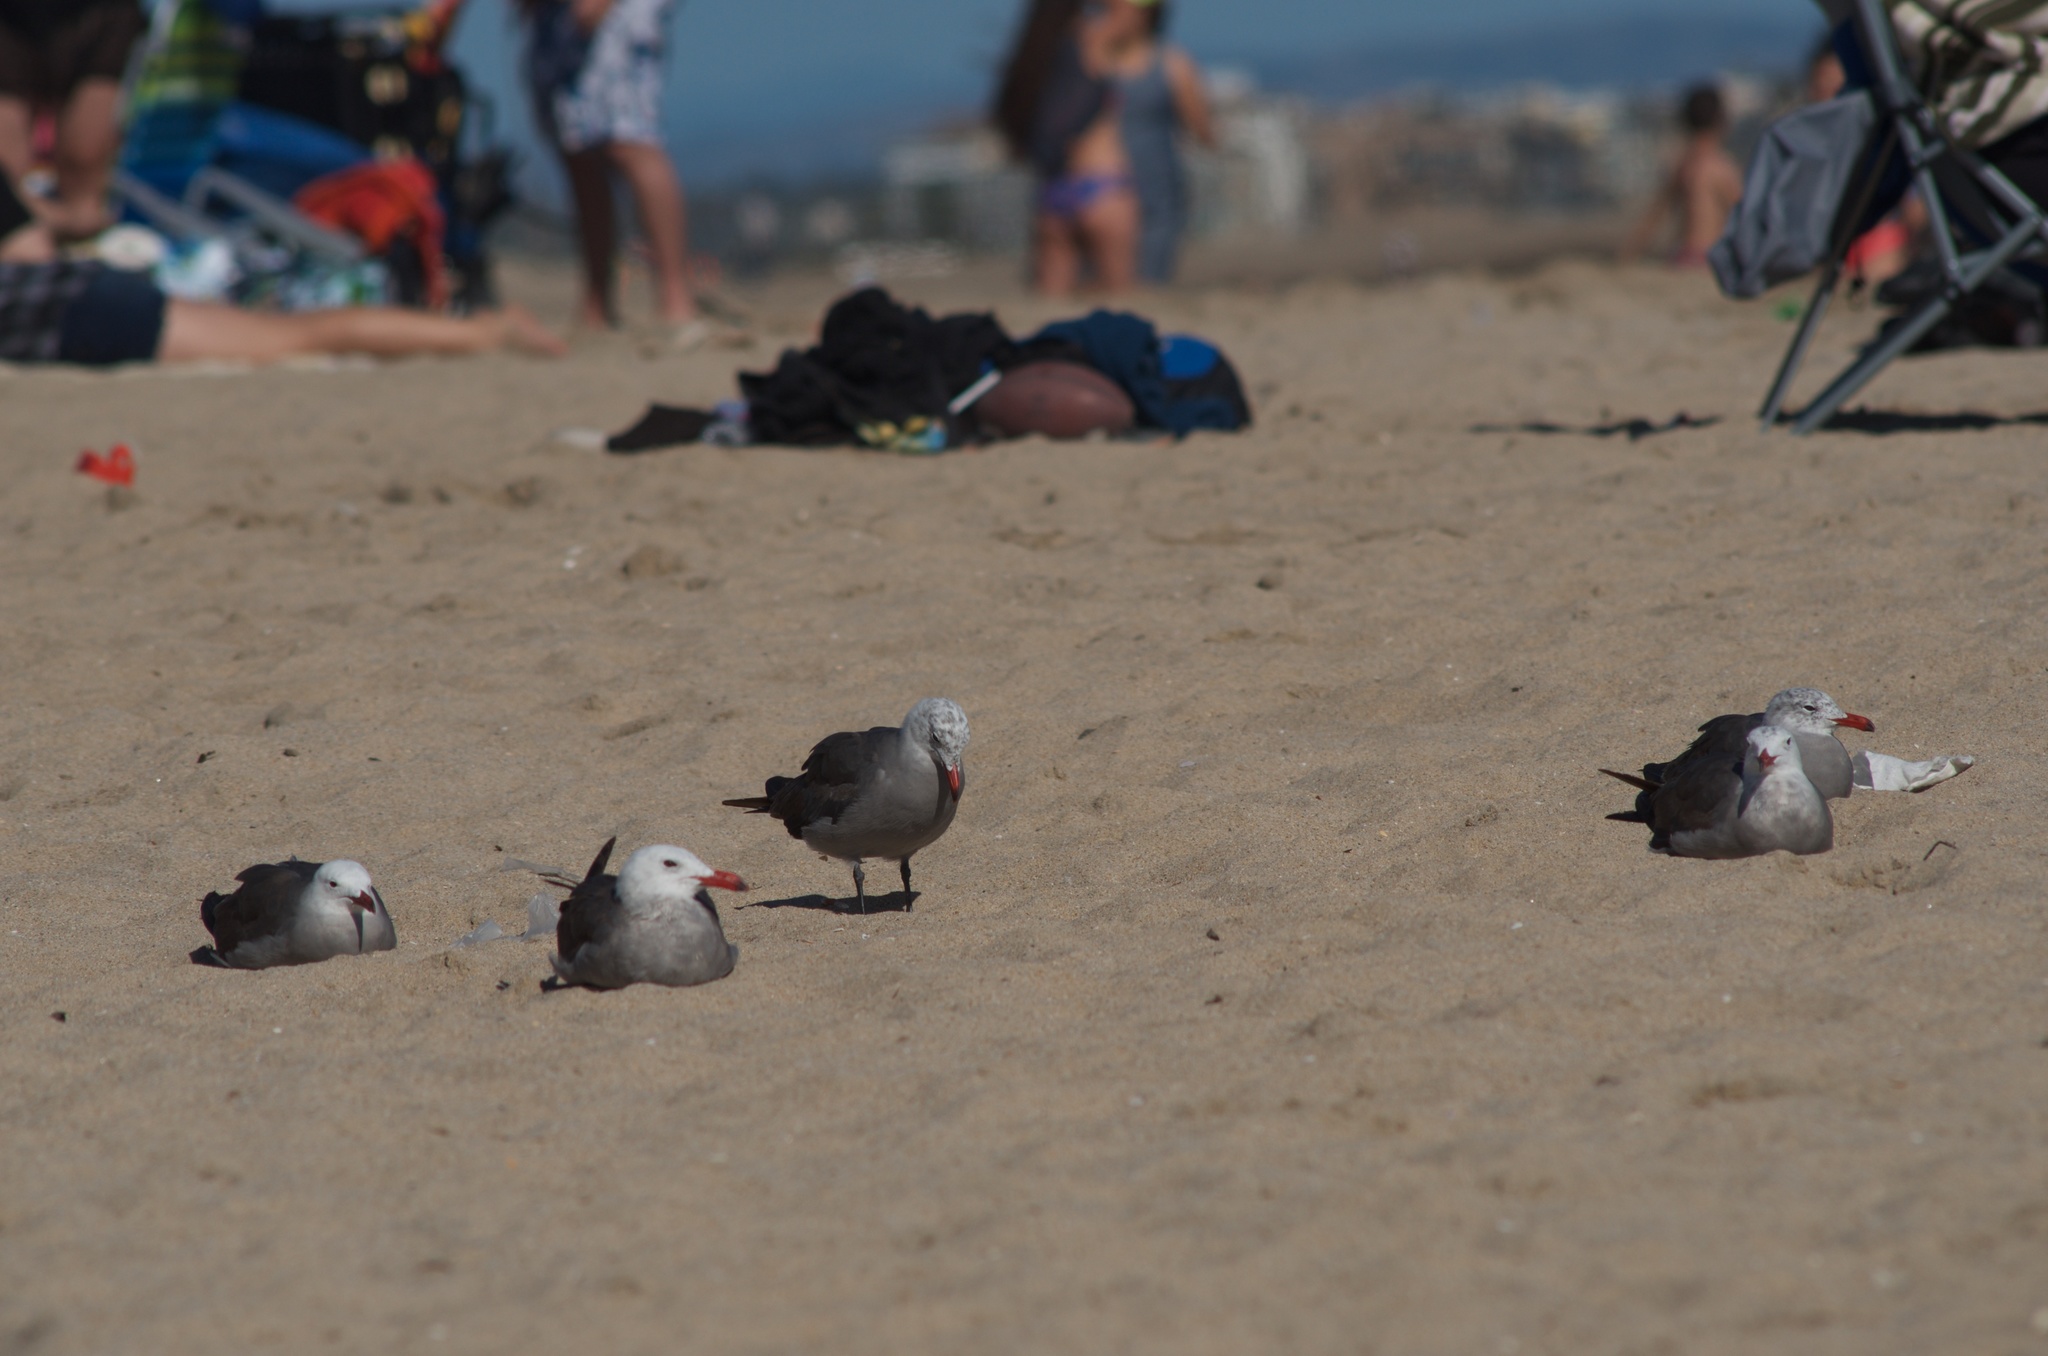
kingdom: Animalia
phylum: Chordata
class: Aves
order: Charadriiformes
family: Laridae
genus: Larus
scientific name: Larus heermanni
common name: Heermann's gull
